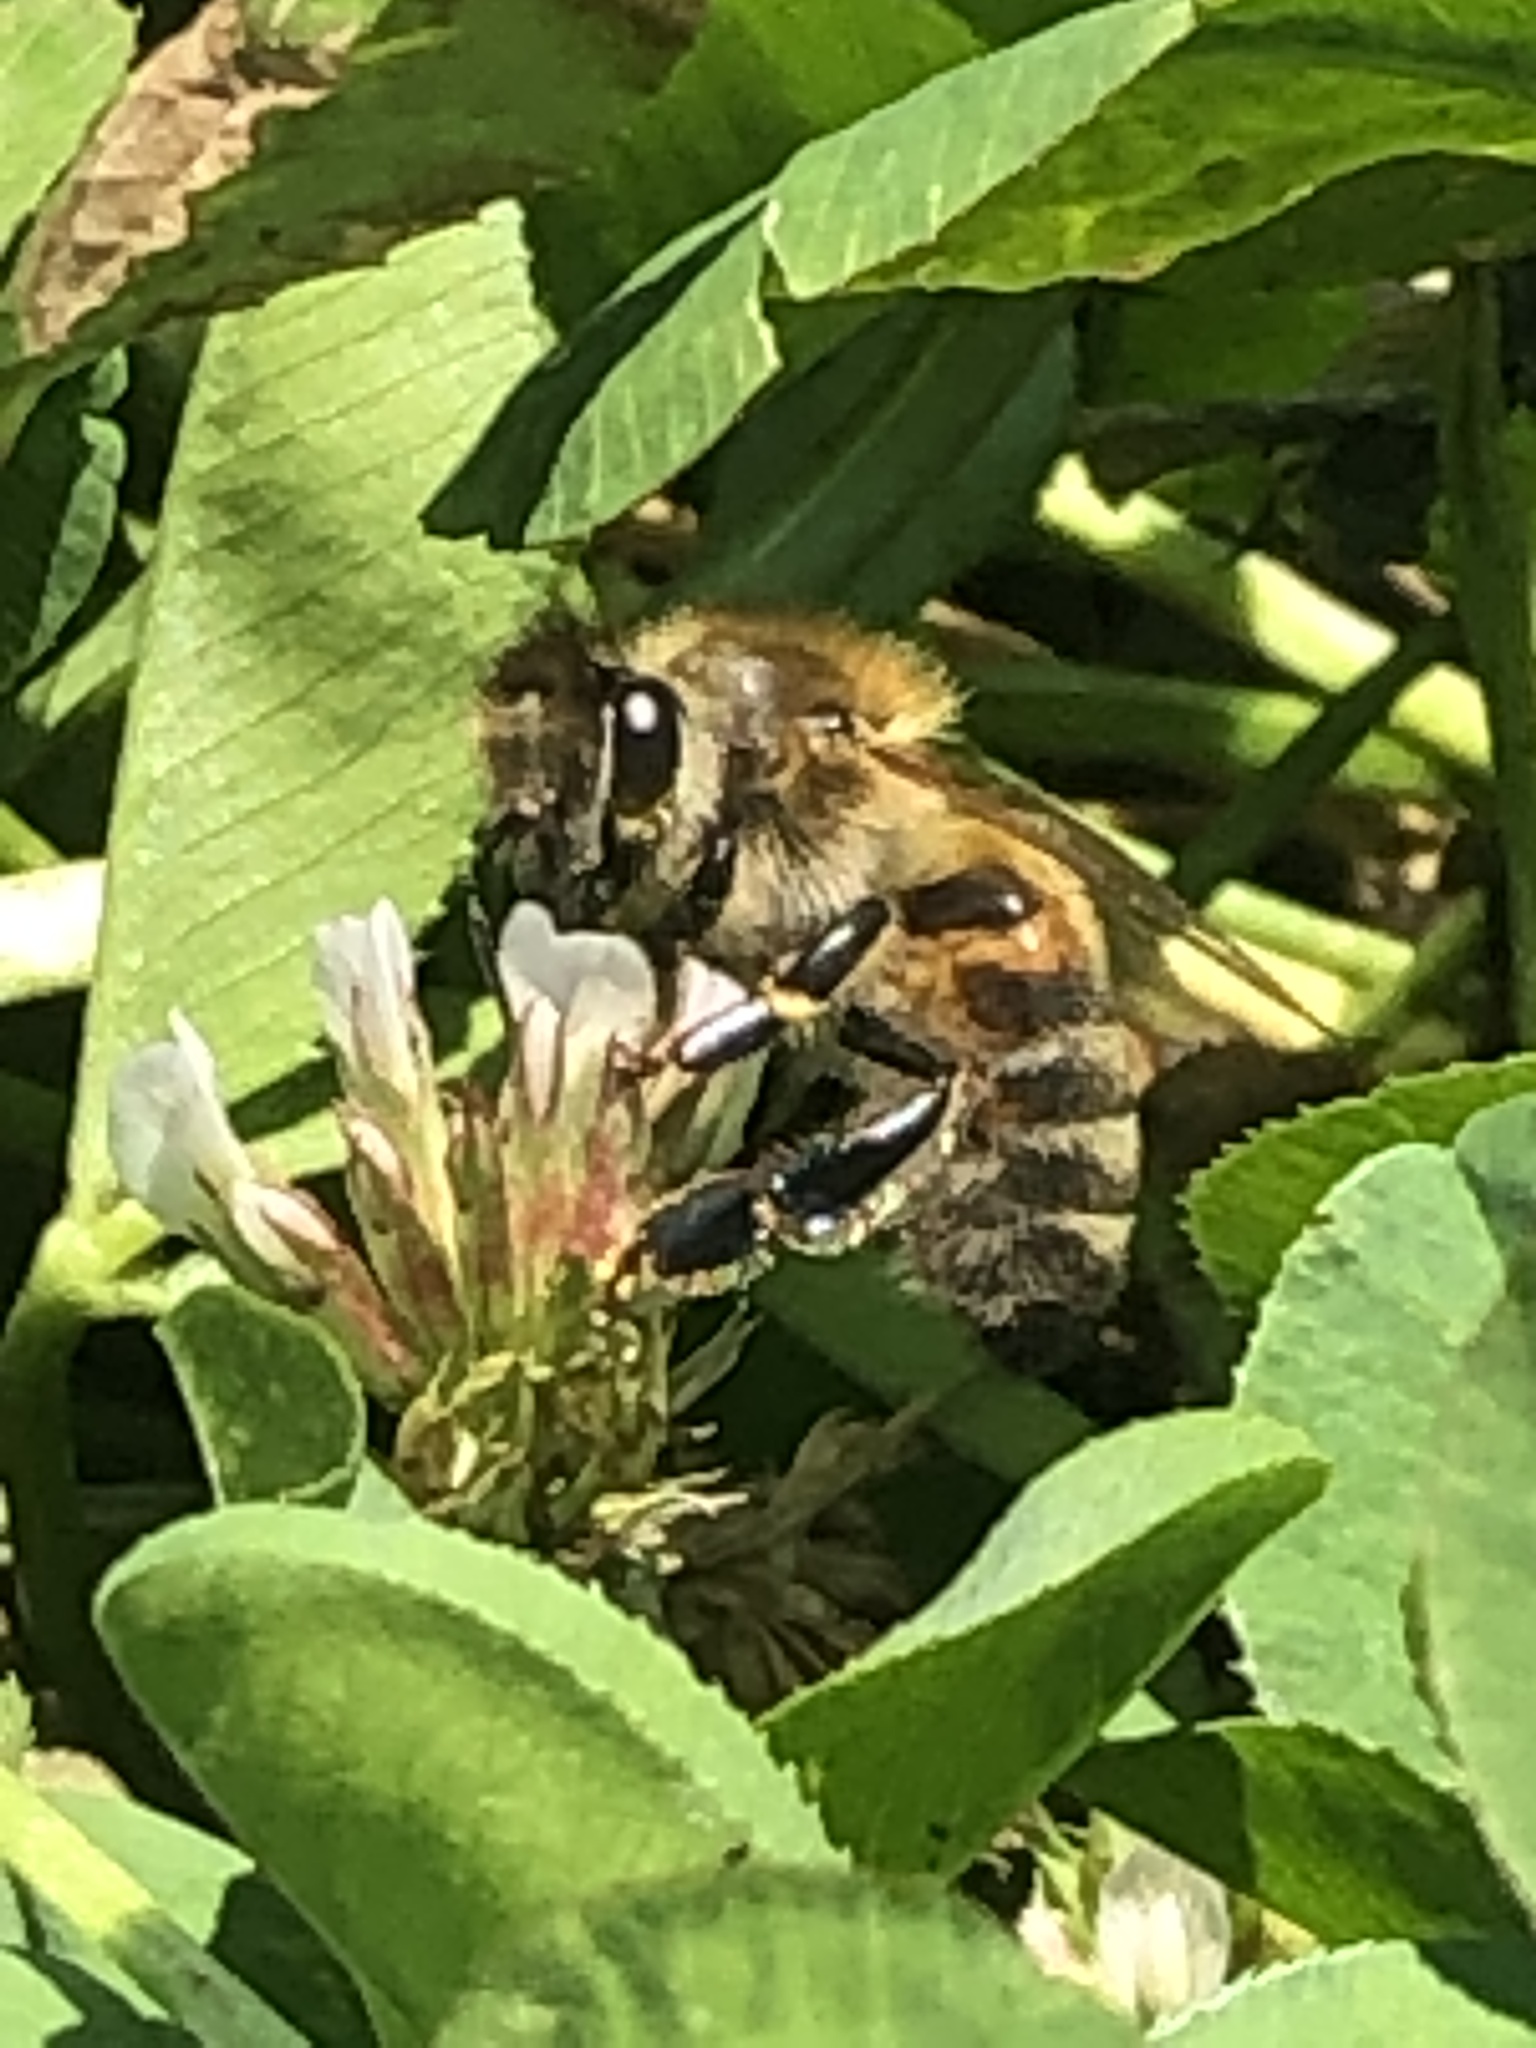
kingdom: Animalia
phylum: Arthropoda
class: Insecta
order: Hymenoptera
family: Apidae
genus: Apis
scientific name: Apis mellifera
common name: Honey bee
